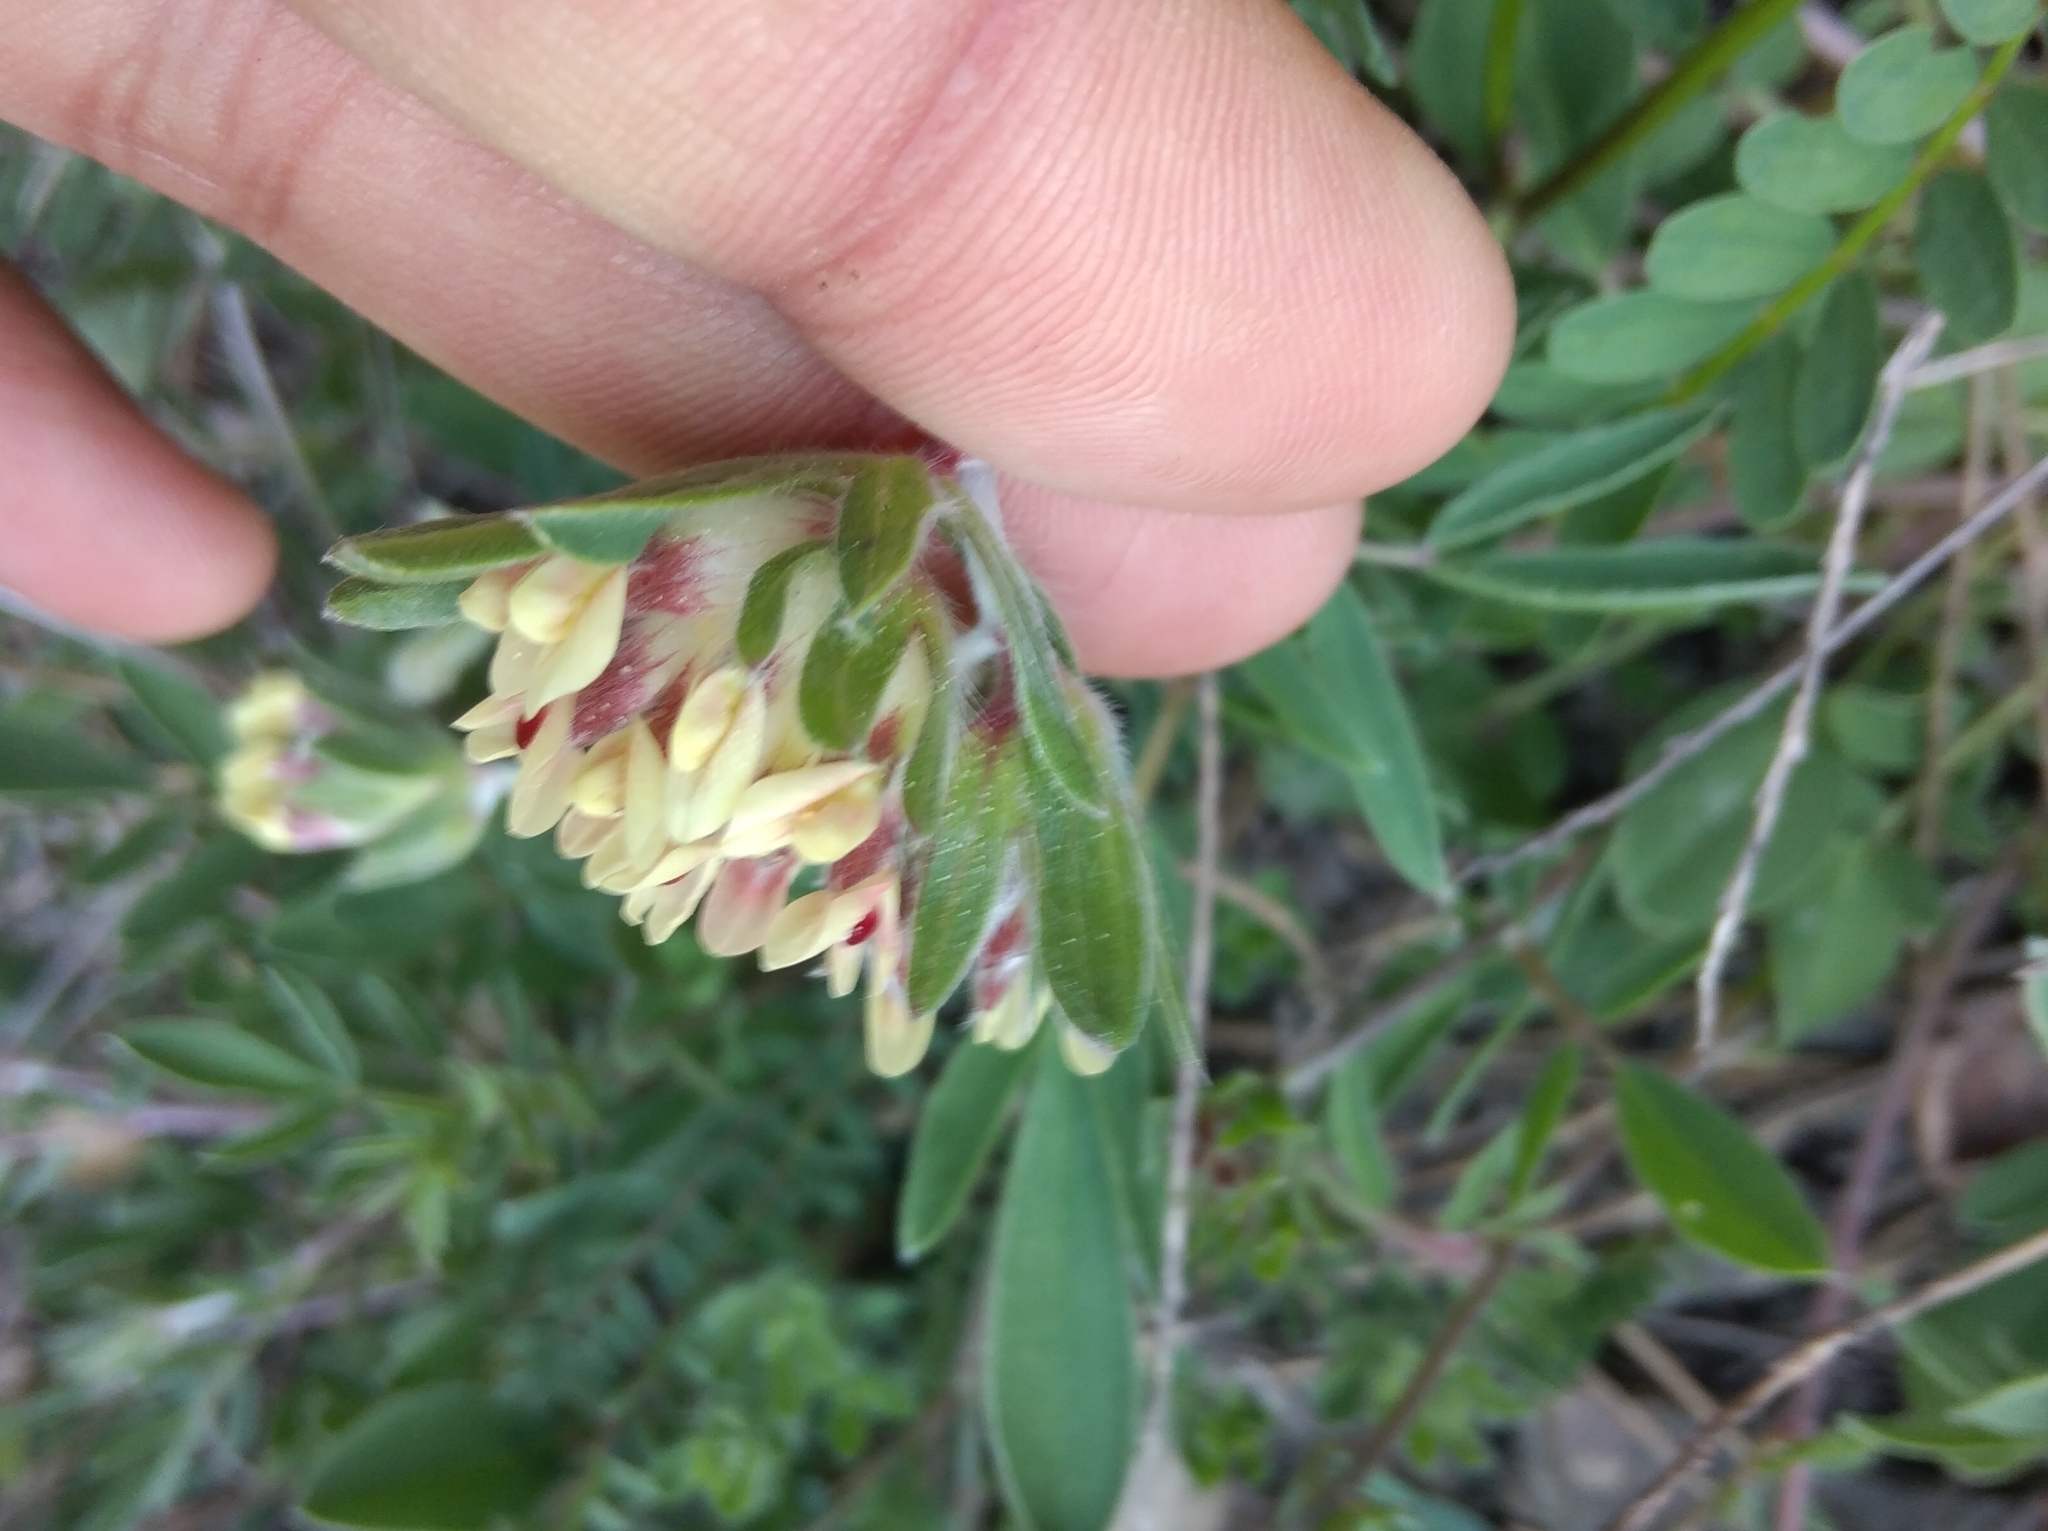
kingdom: Plantae
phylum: Tracheophyta
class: Magnoliopsida
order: Fabales
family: Fabaceae
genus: Anthyllis
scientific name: Anthyllis vulneraria
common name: Kidney vetch
